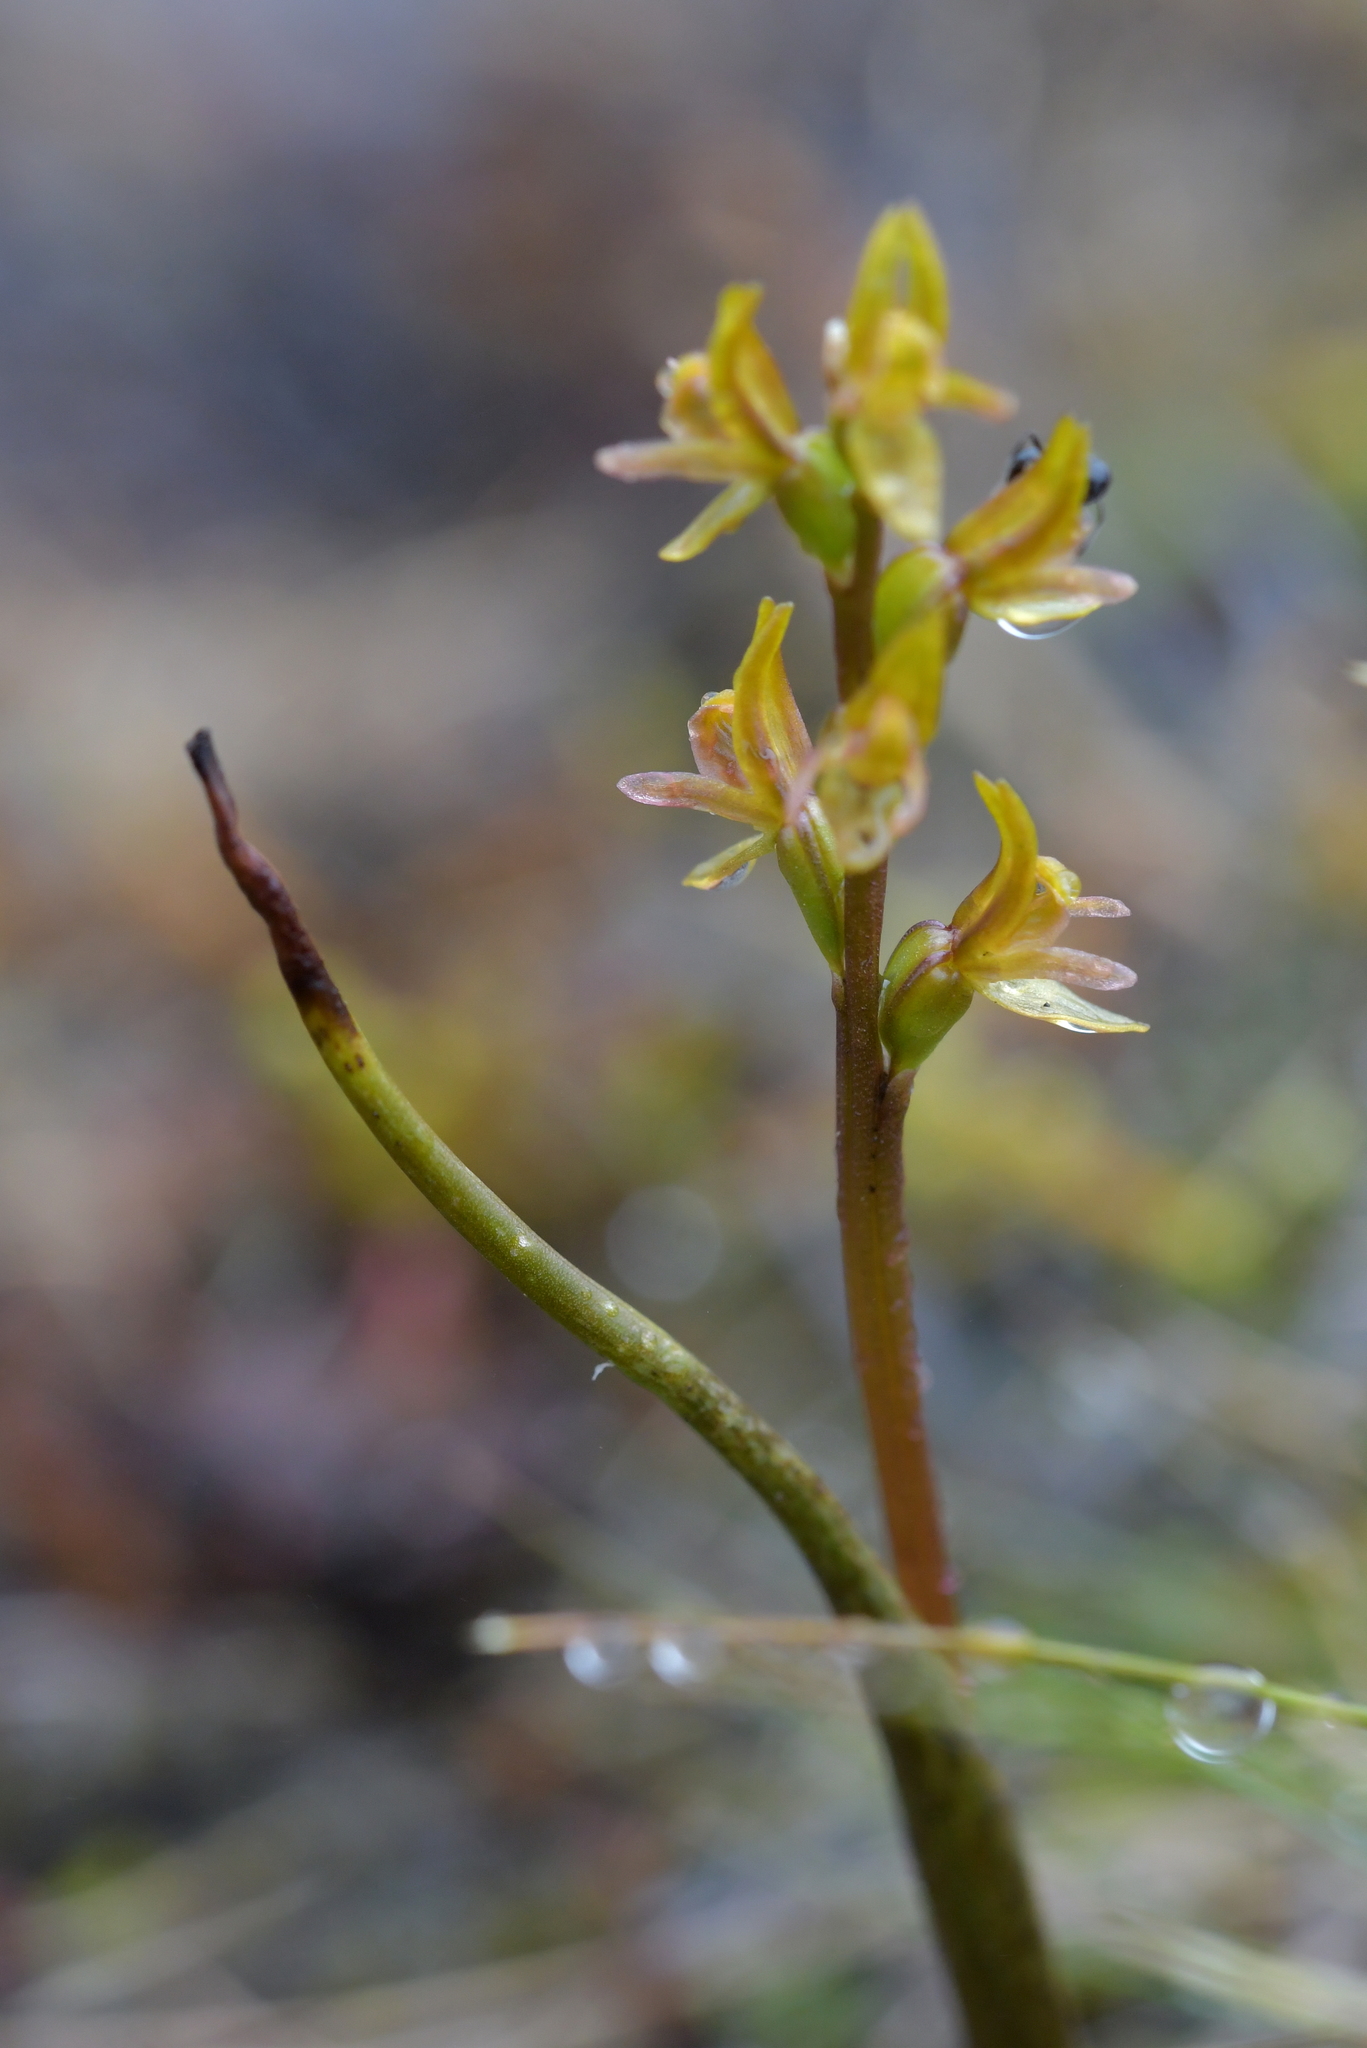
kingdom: Plantae
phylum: Tracheophyta
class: Liliopsida
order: Asparagales
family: Orchidaceae
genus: Prasophyllum
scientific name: Prasophyllum colensoi
